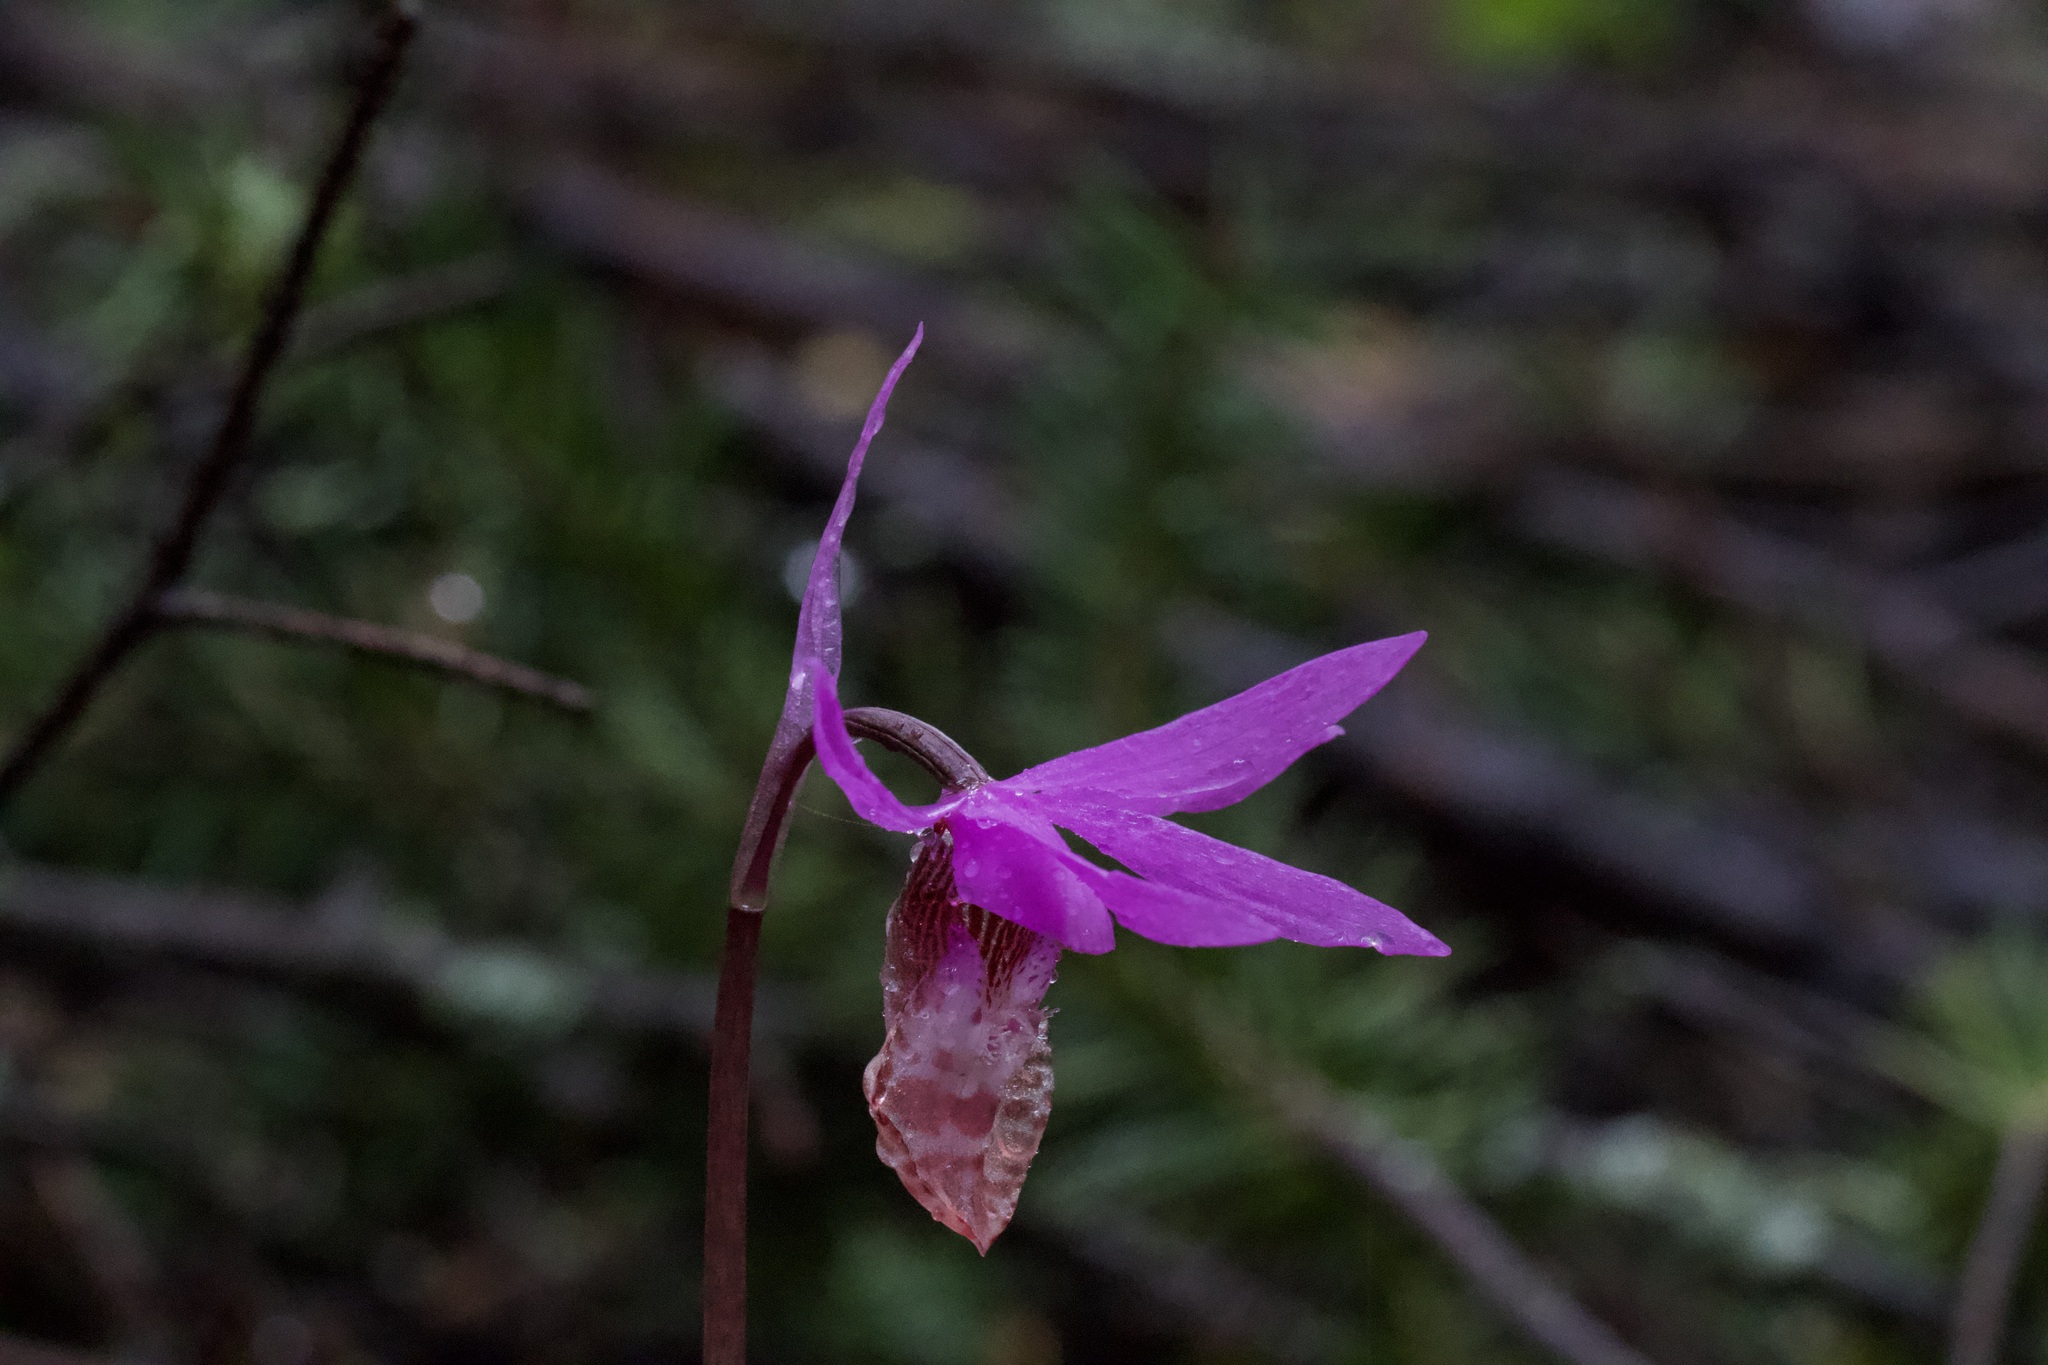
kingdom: Plantae
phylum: Tracheophyta
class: Liliopsida
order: Asparagales
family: Orchidaceae
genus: Calypso
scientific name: Calypso bulbosa
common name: Calypso
